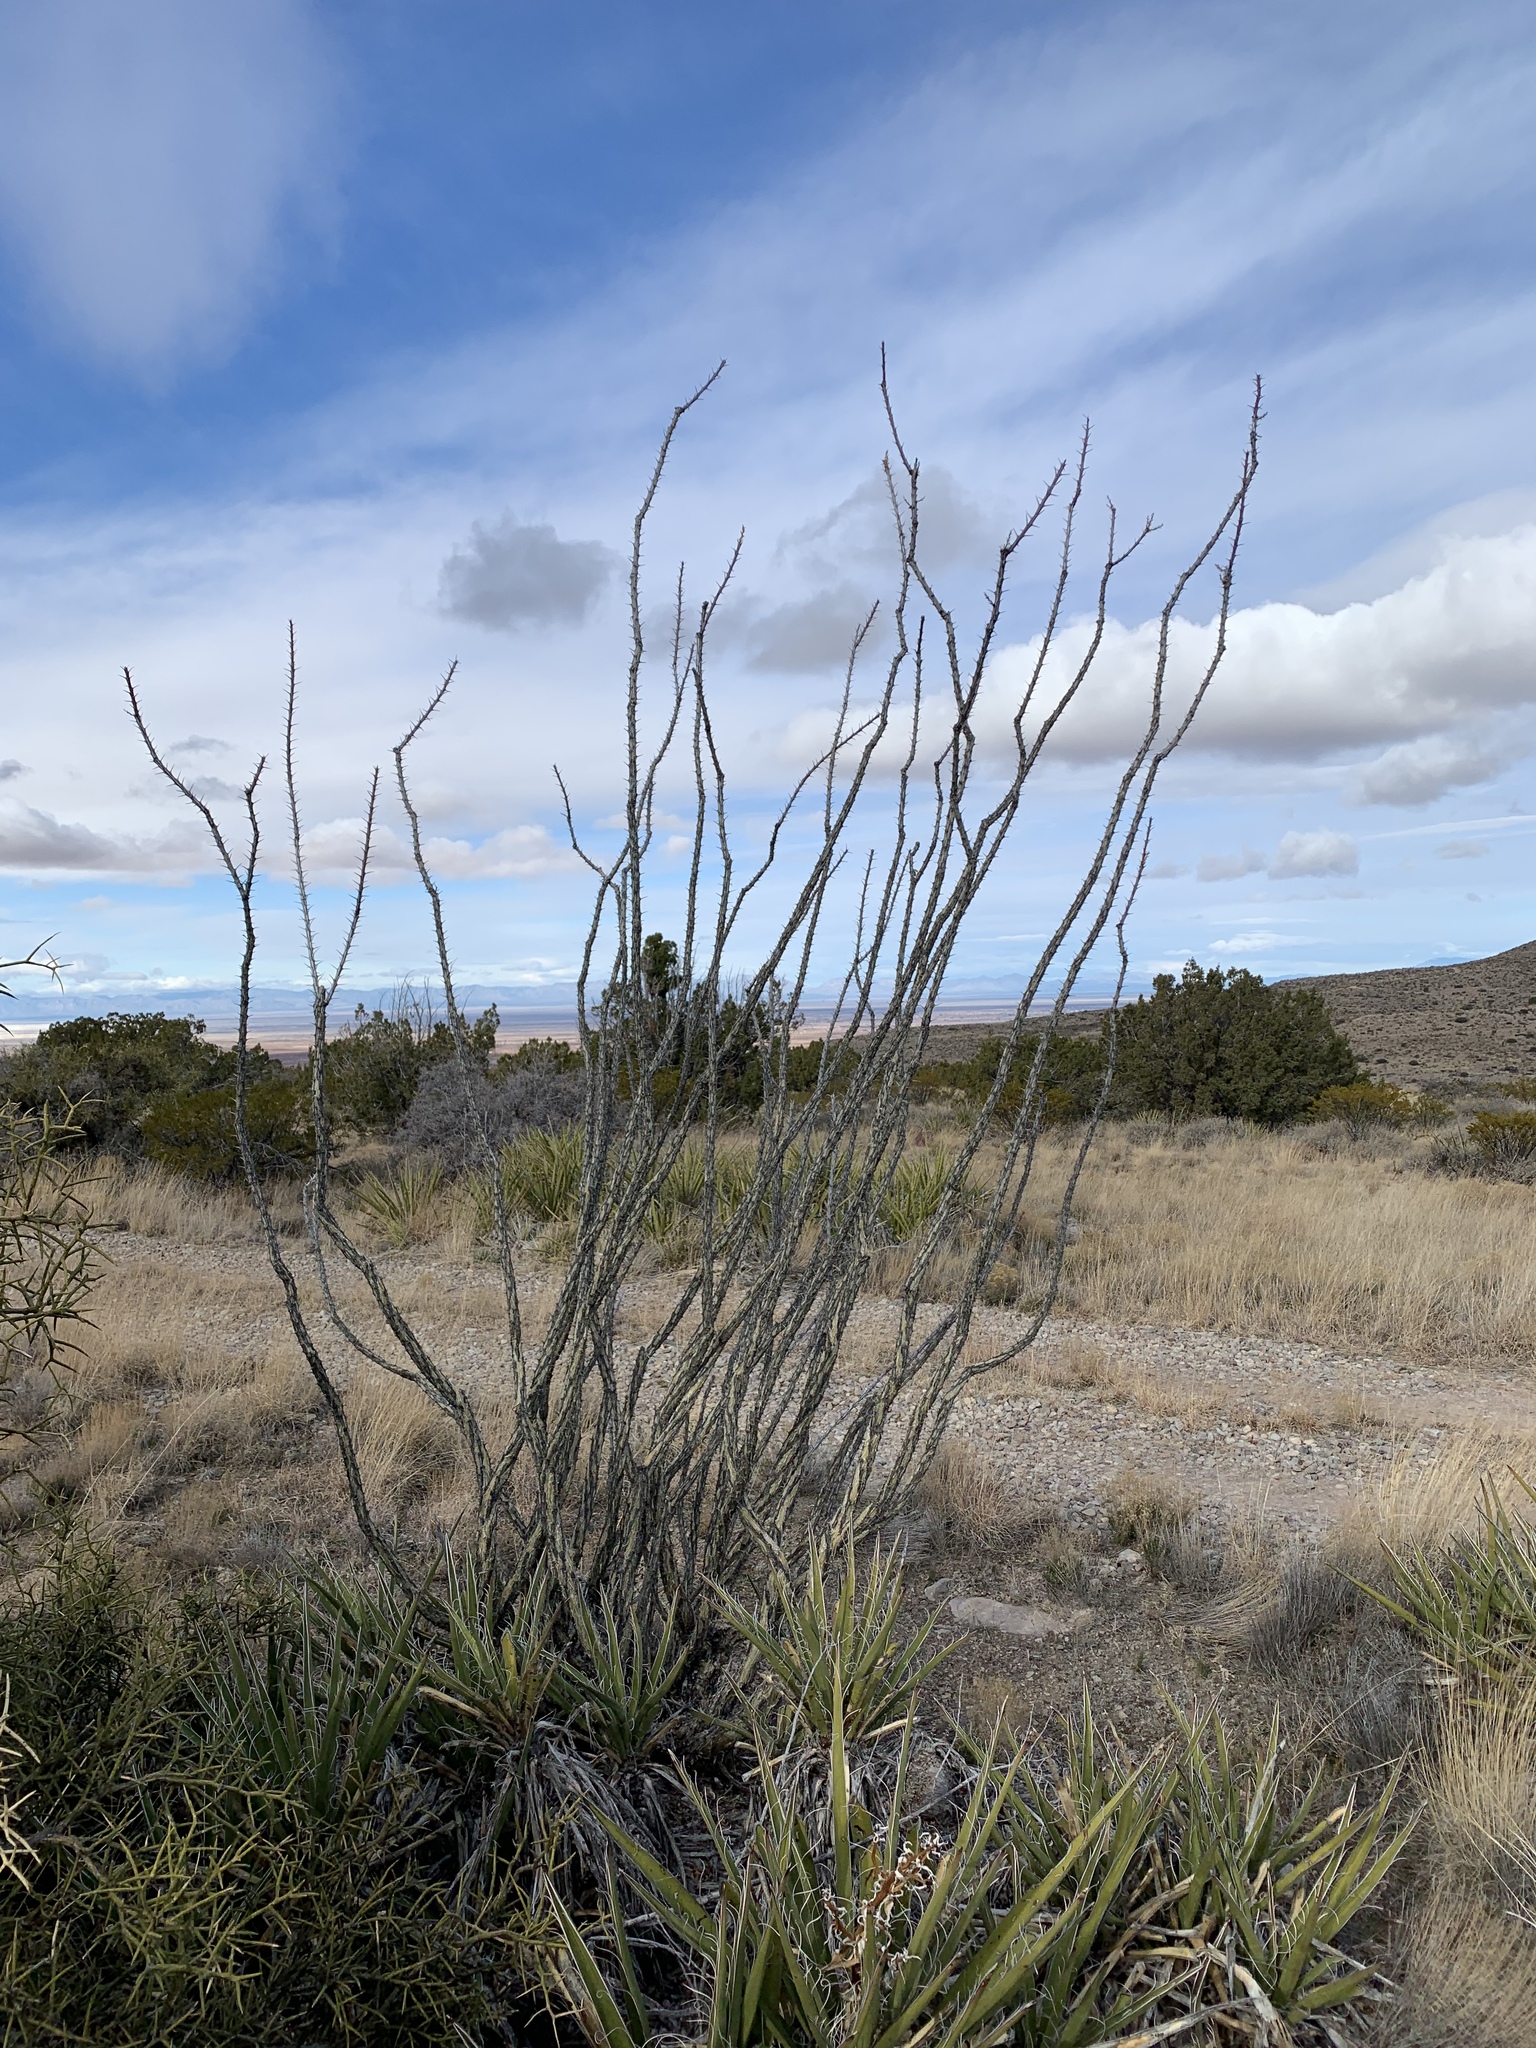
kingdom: Plantae
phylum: Tracheophyta
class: Magnoliopsida
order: Ericales
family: Fouquieriaceae
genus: Fouquieria
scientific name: Fouquieria splendens
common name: Vine-cactus
